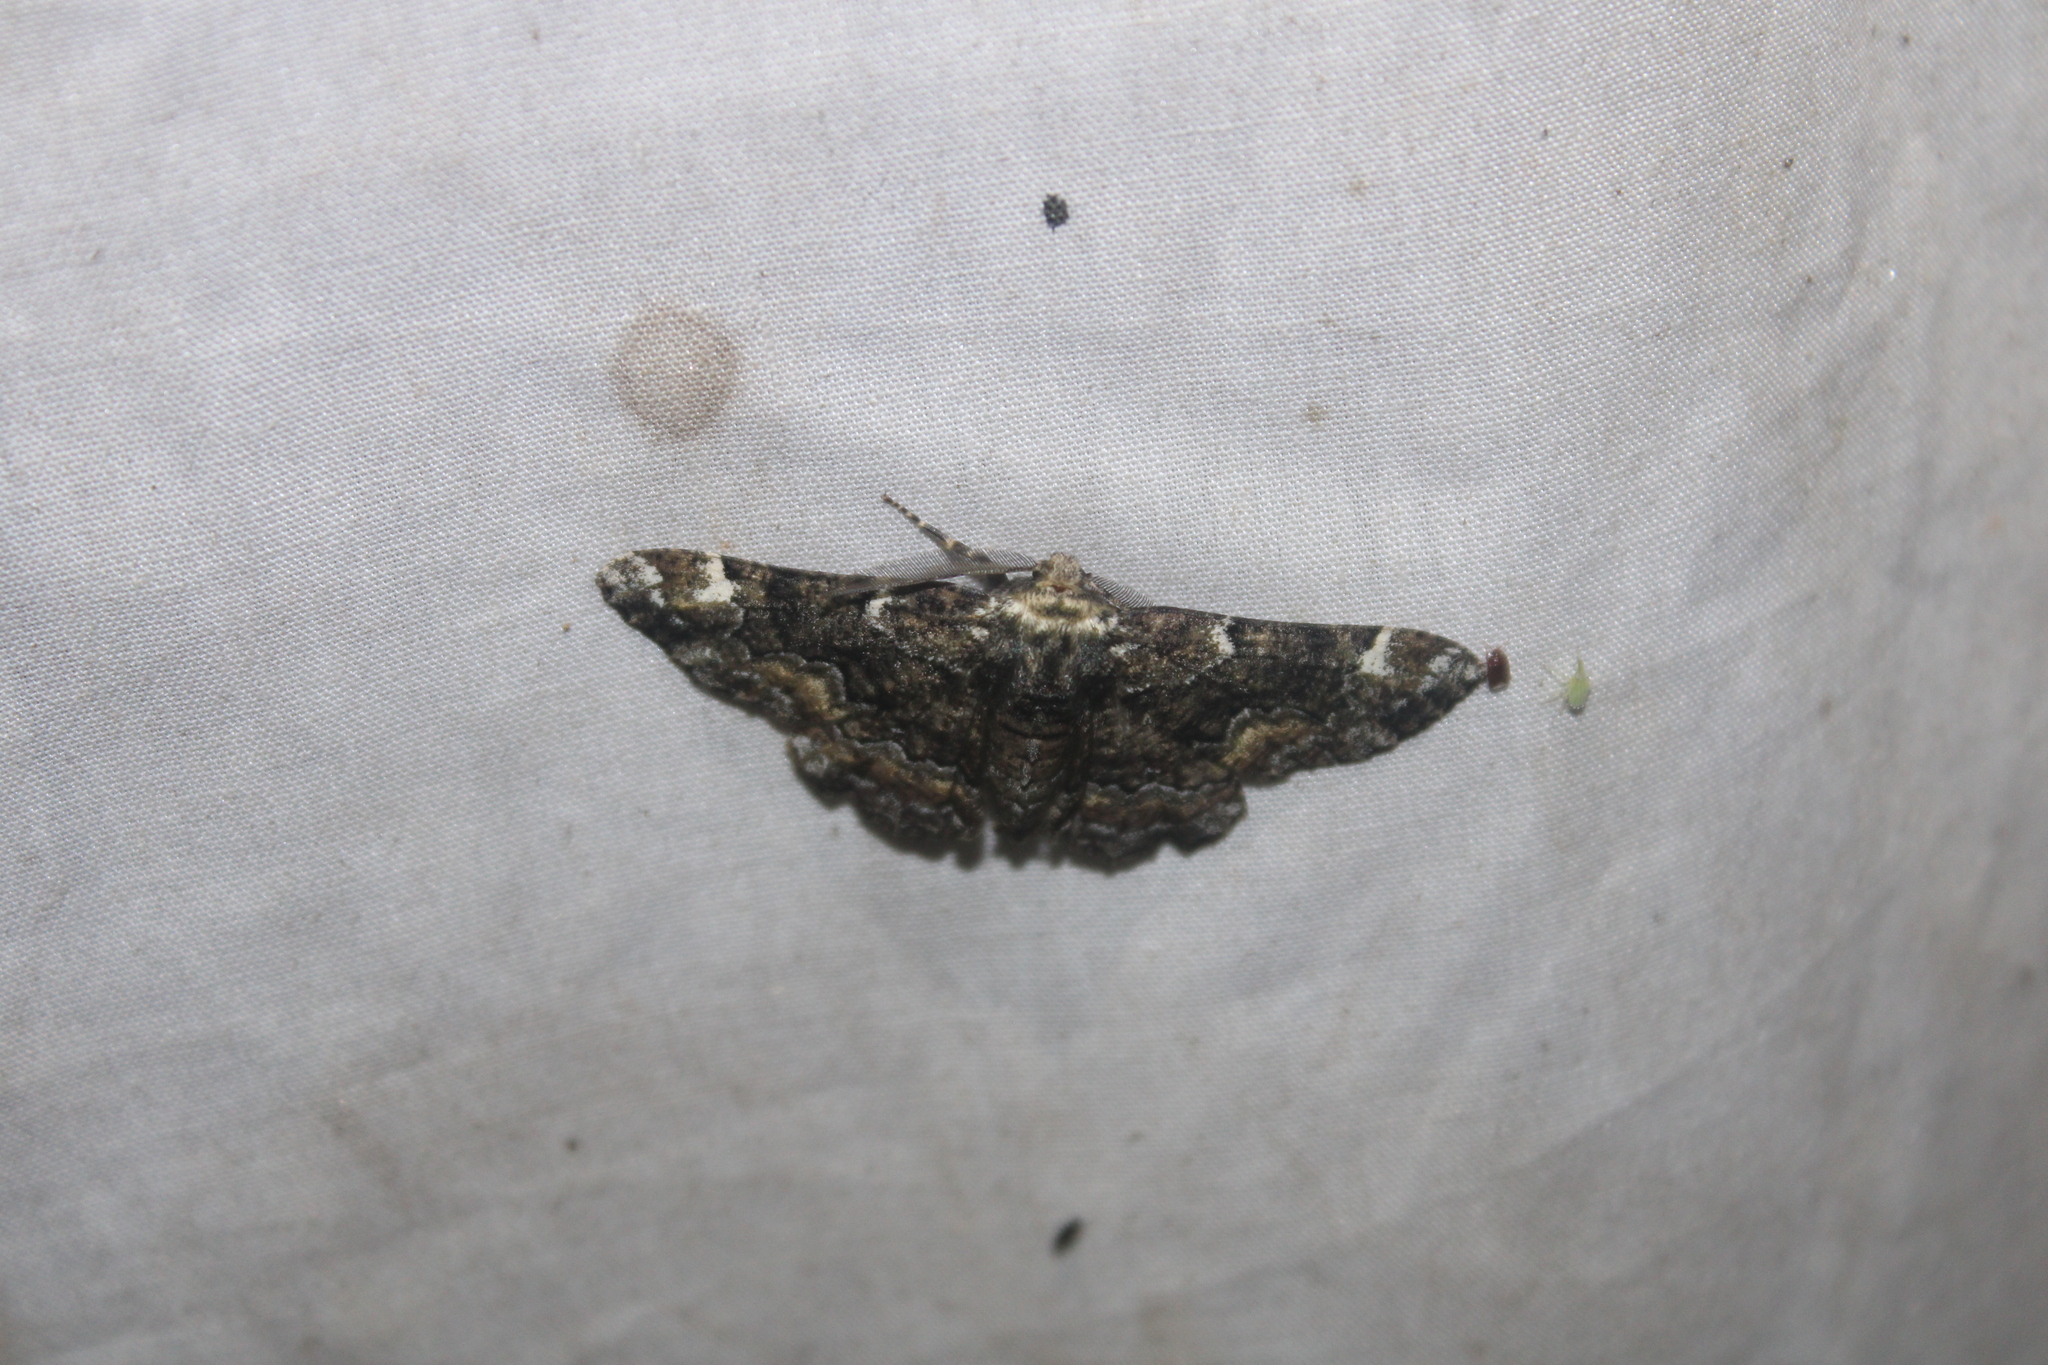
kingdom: Animalia
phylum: Arthropoda
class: Insecta
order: Lepidoptera
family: Geometridae
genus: Phaeoura
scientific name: Phaeoura quernaria
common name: Oak beauty
